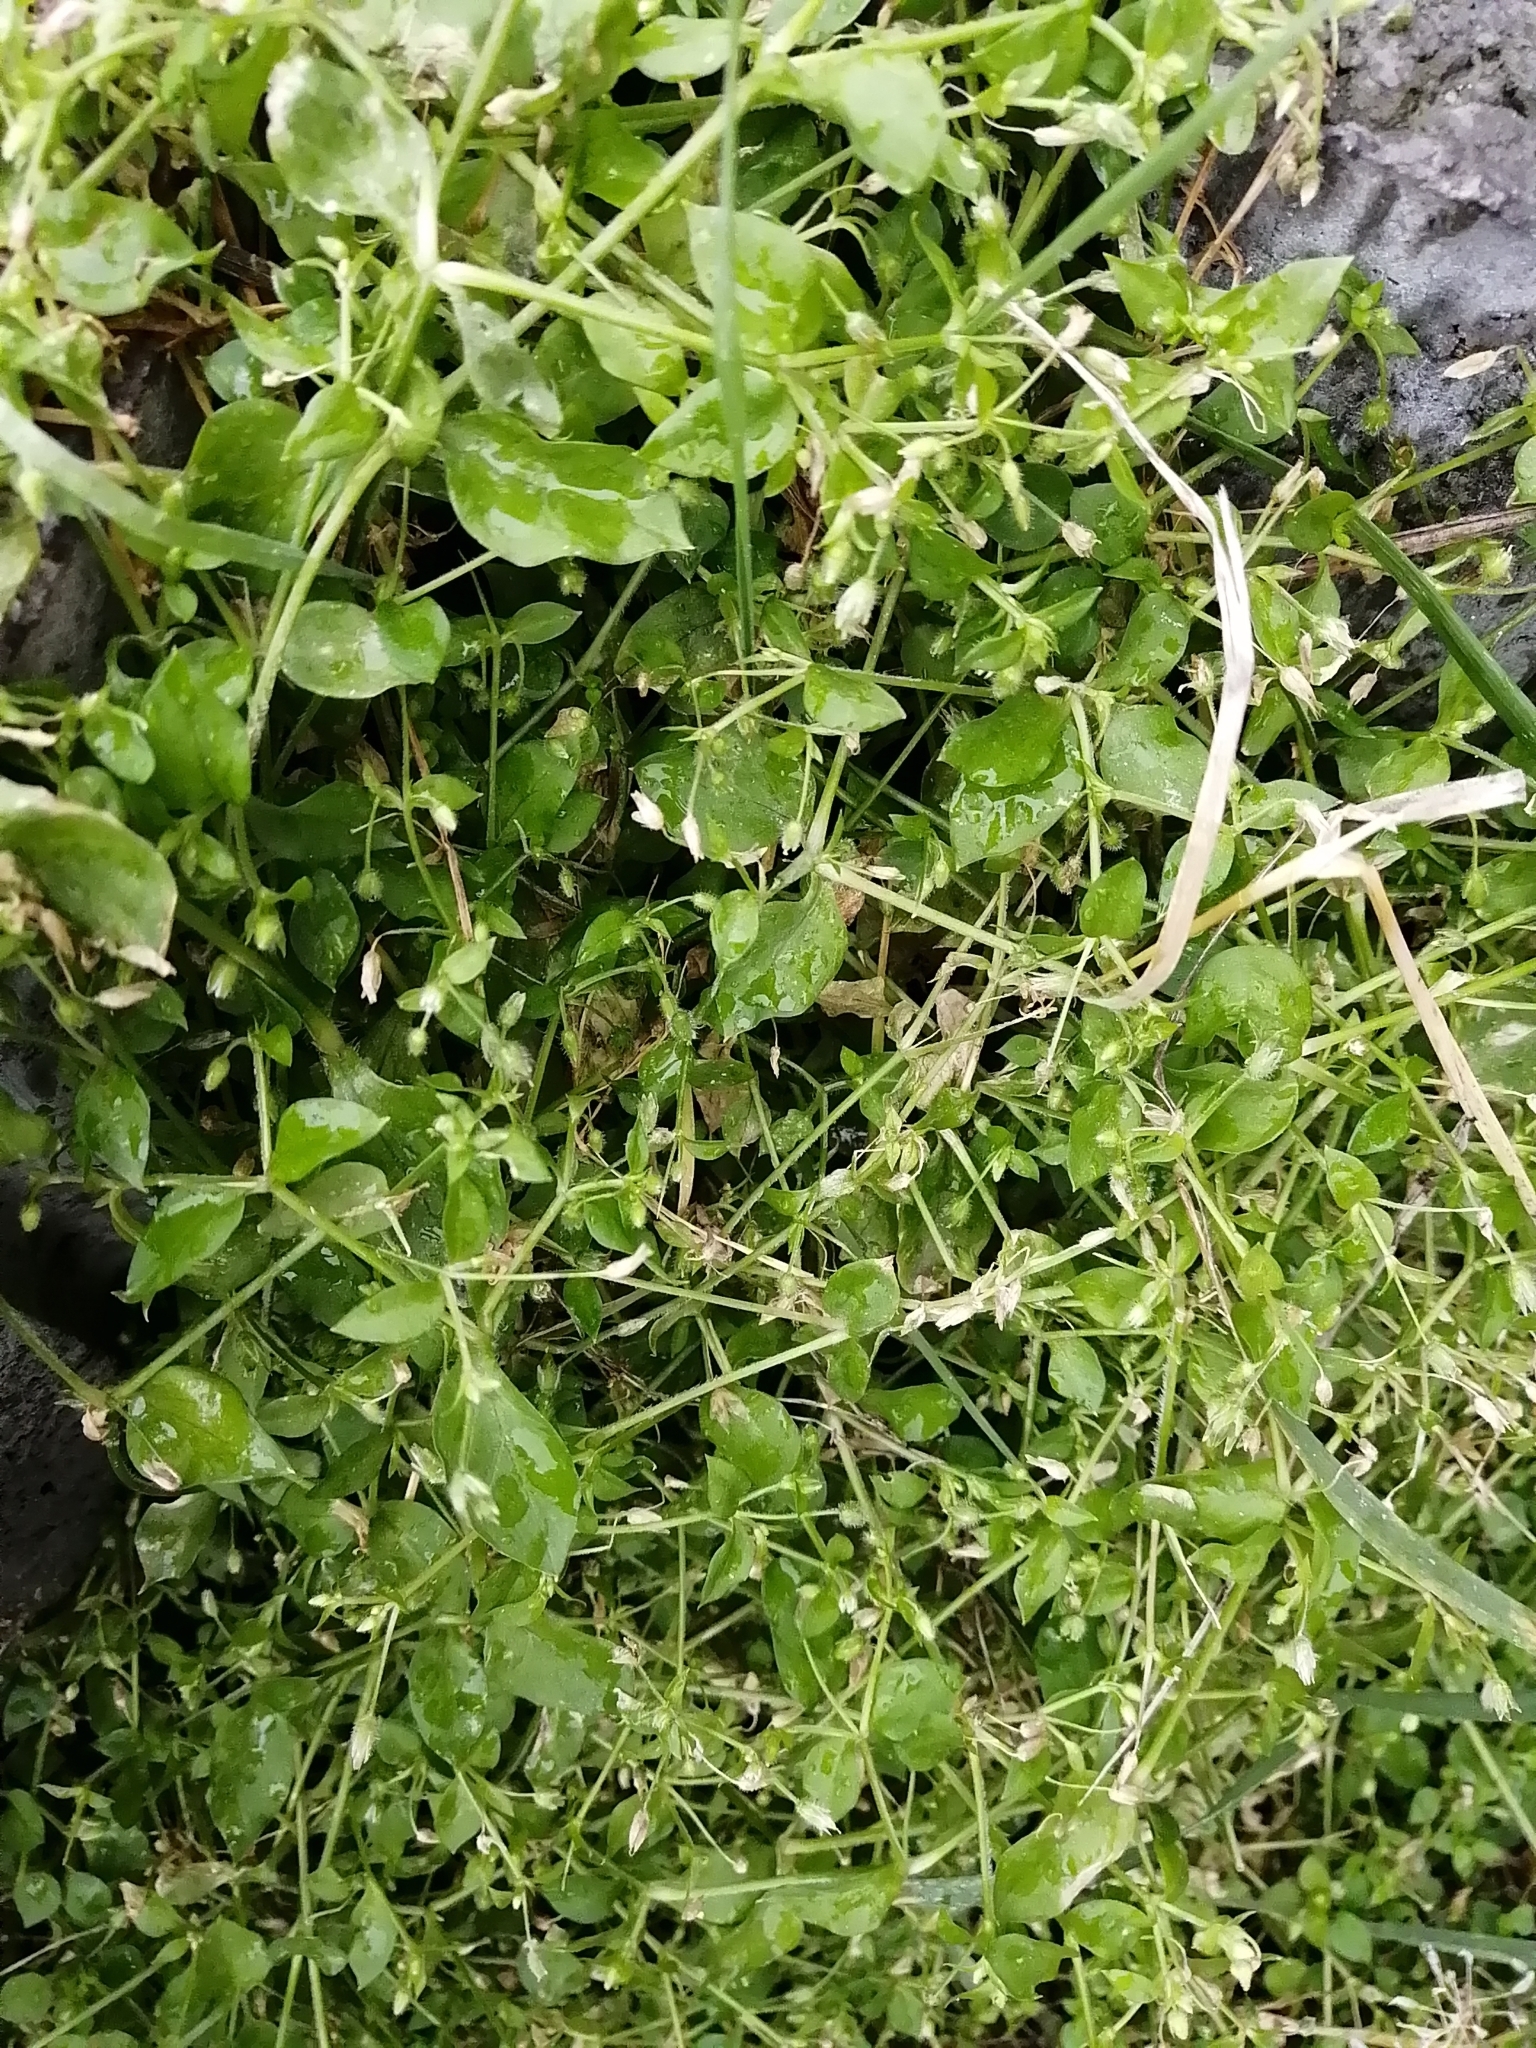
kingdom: Plantae
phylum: Tracheophyta
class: Magnoliopsida
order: Caryophyllales
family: Caryophyllaceae
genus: Stellaria
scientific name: Stellaria media
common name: Common chickweed
